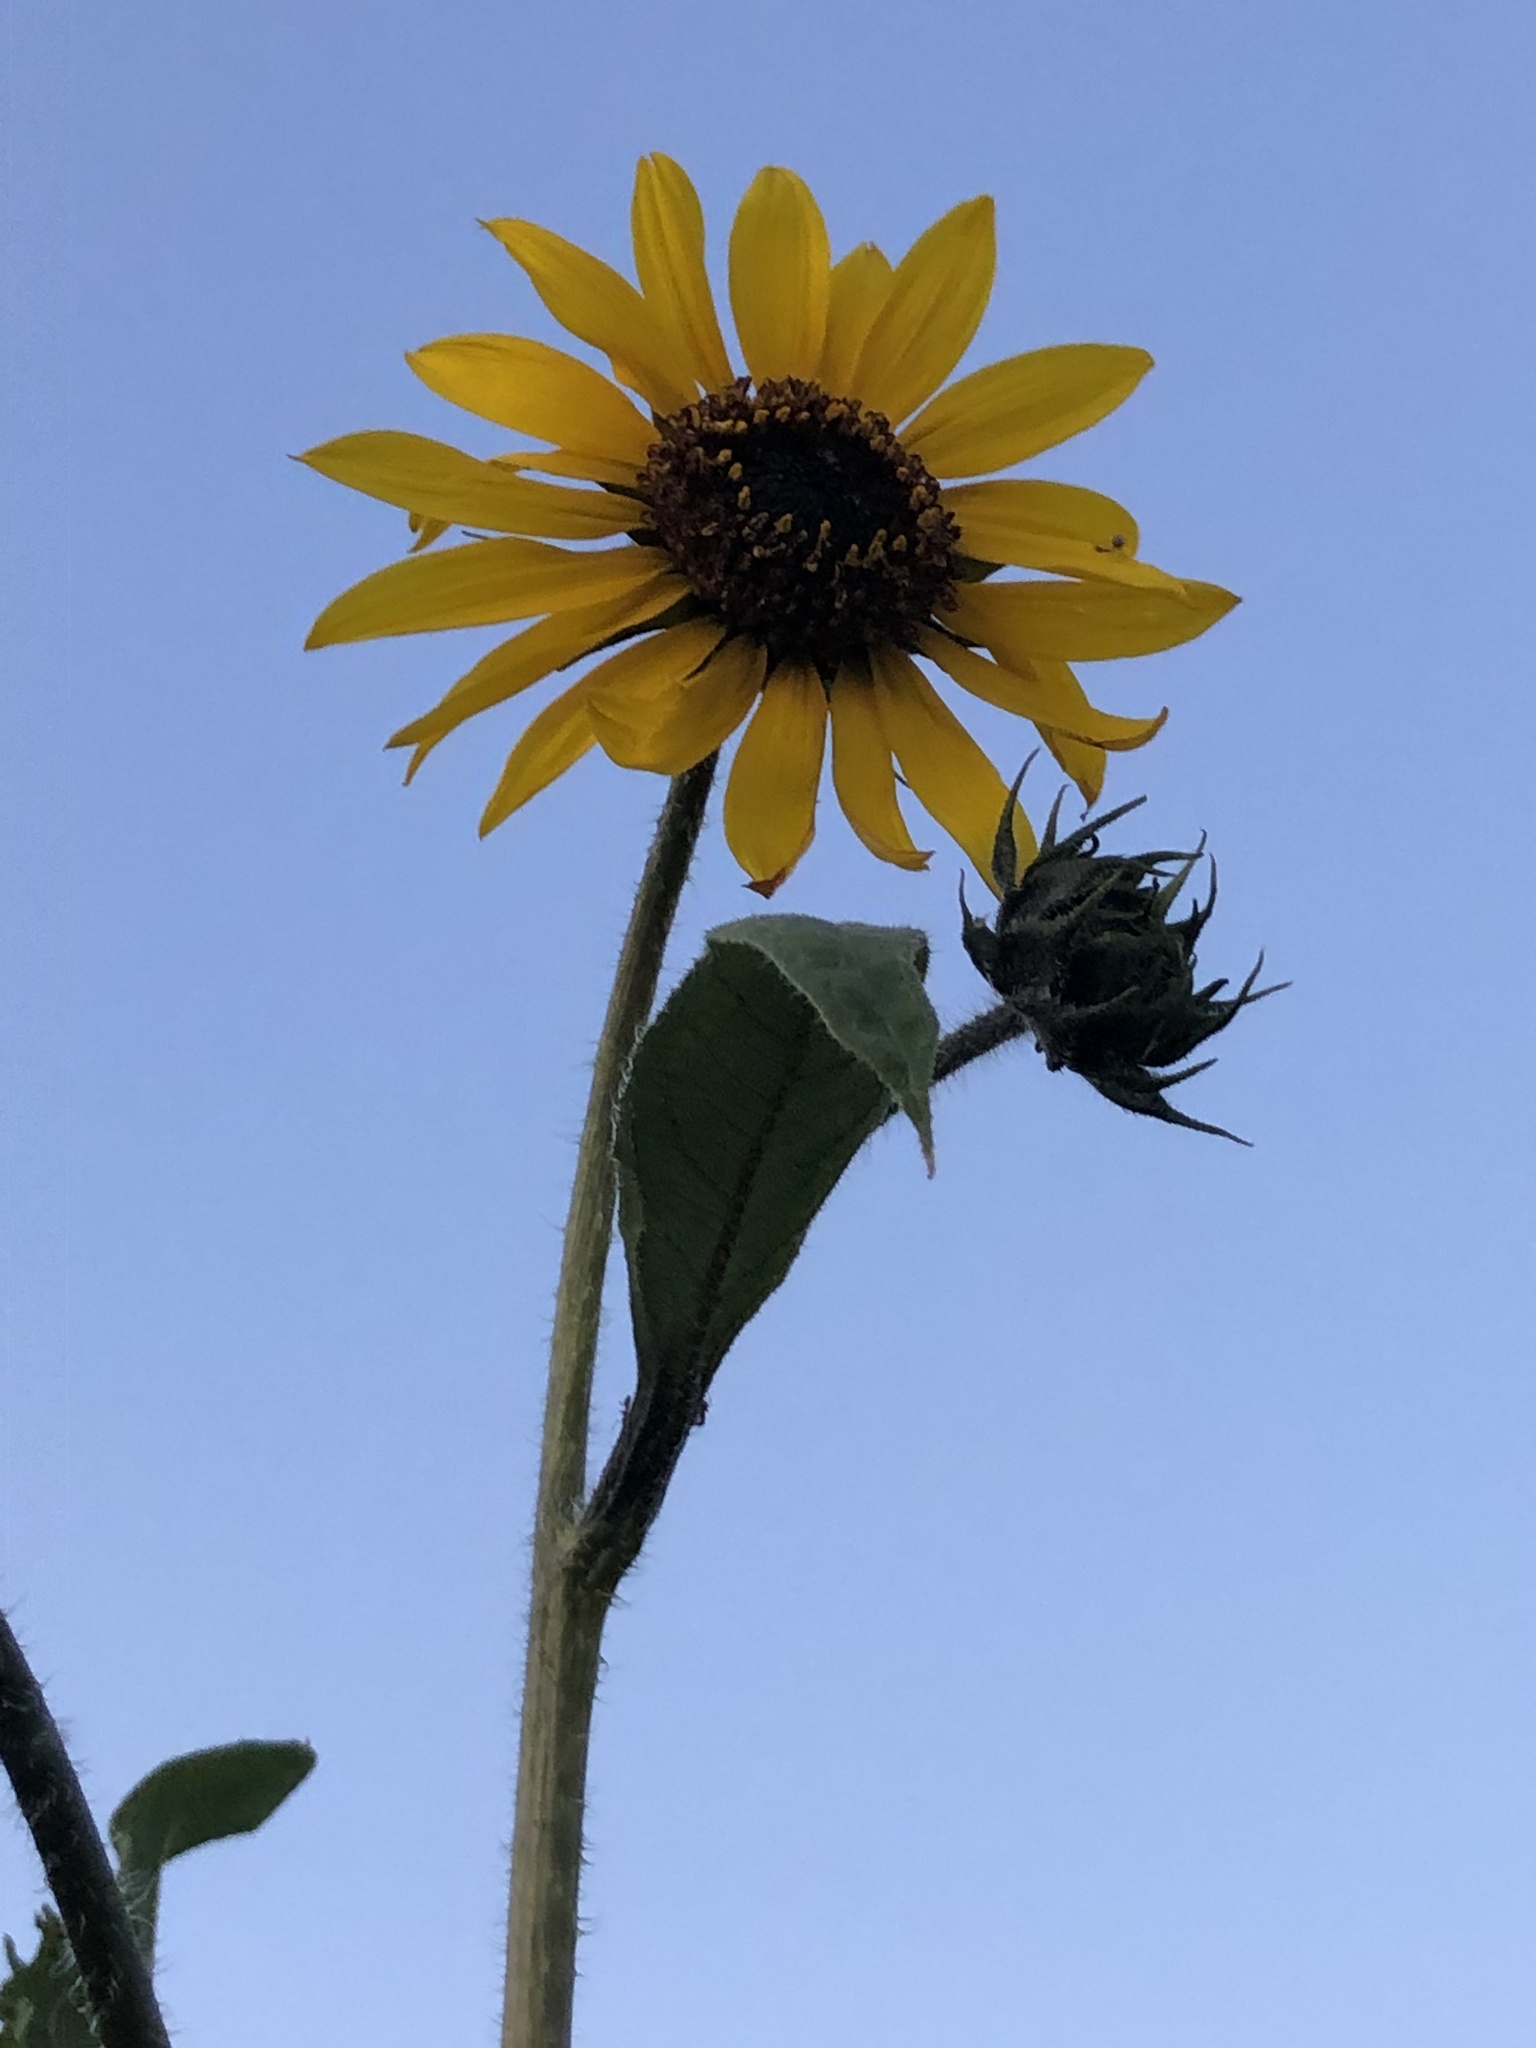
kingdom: Plantae
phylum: Tracheophyta
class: Magnoliopsida
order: Asterales
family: Asteraceae
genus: Helianthus
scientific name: Helianthus annuus
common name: Sunflower
